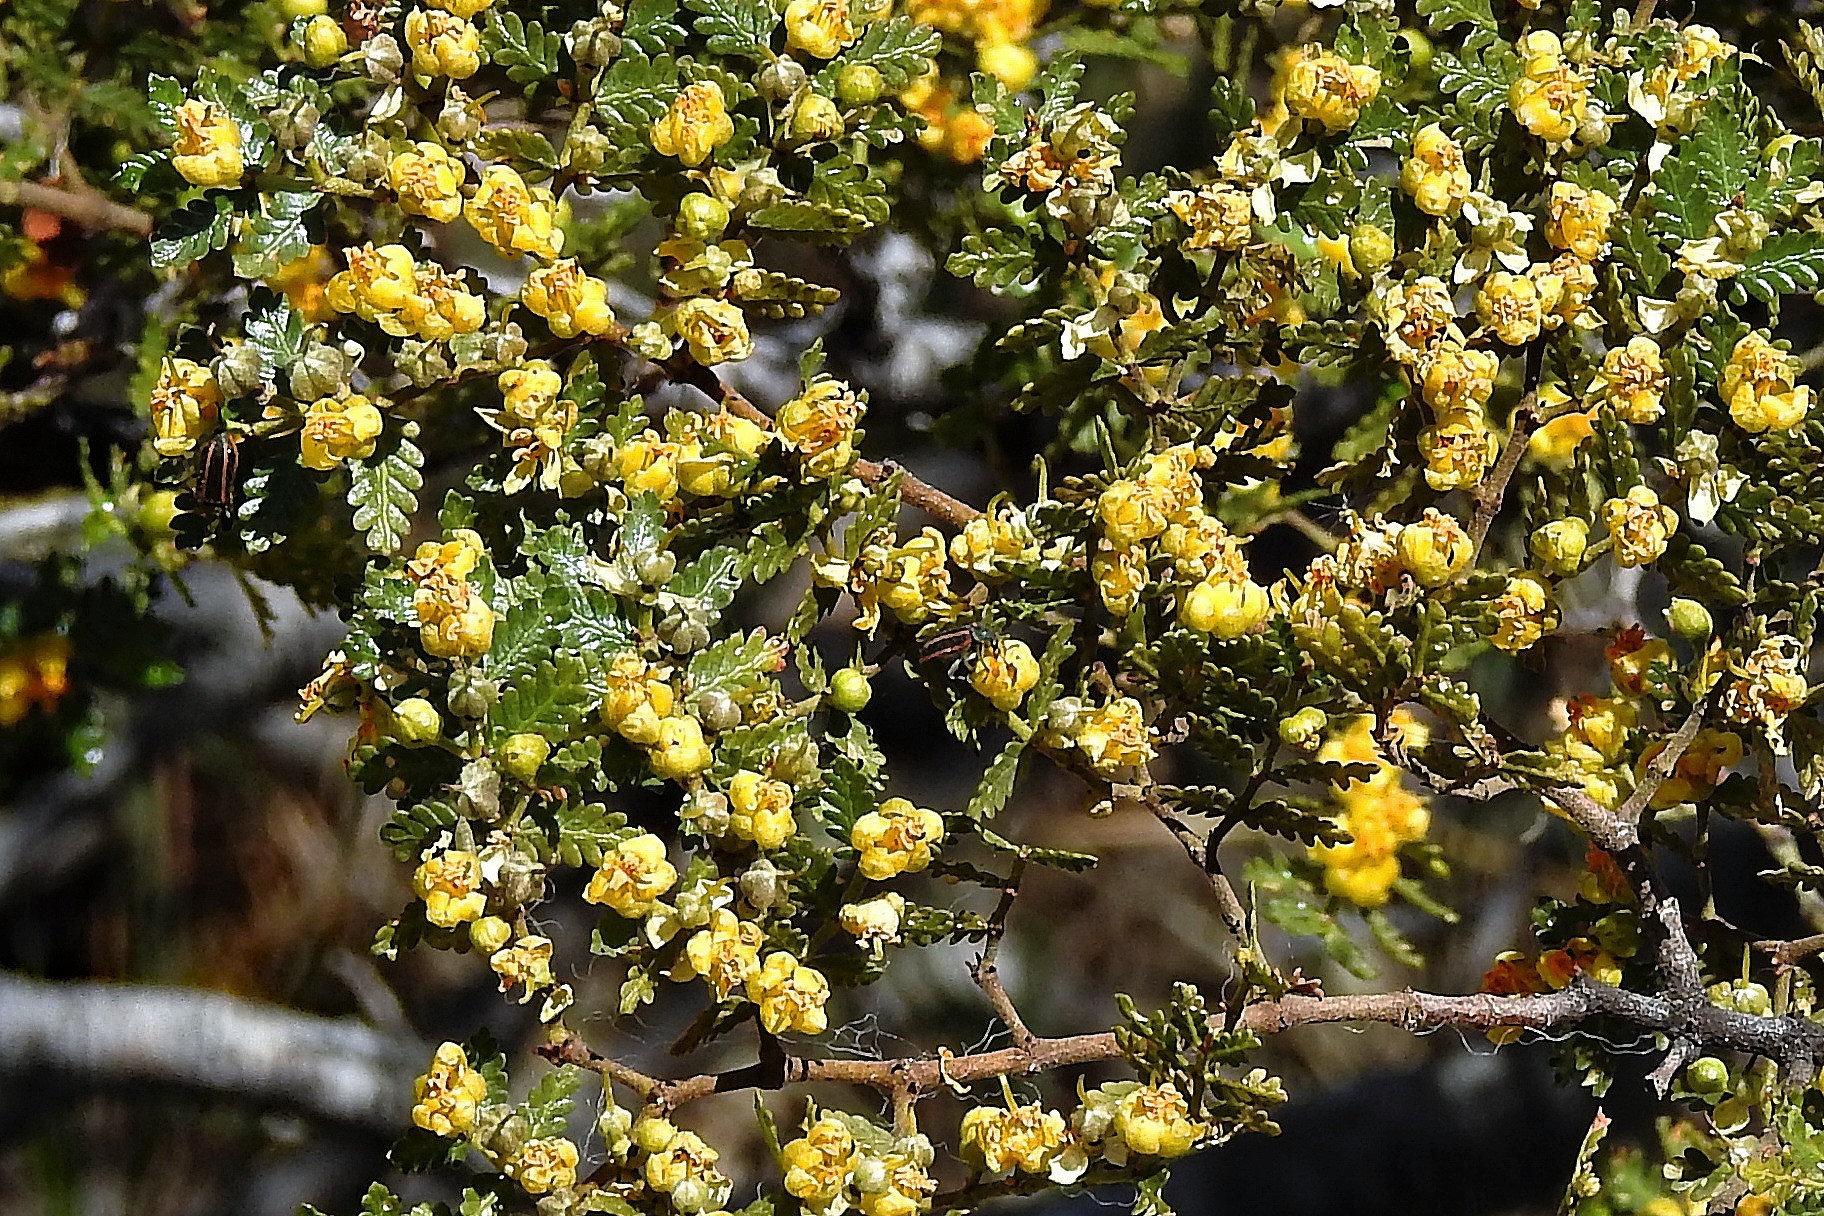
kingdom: Plantae
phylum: Tracheophyta
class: Magnoliopsida
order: Zygophyllales
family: Zygophyllaceae
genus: Larrea
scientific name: Larrea nitida
